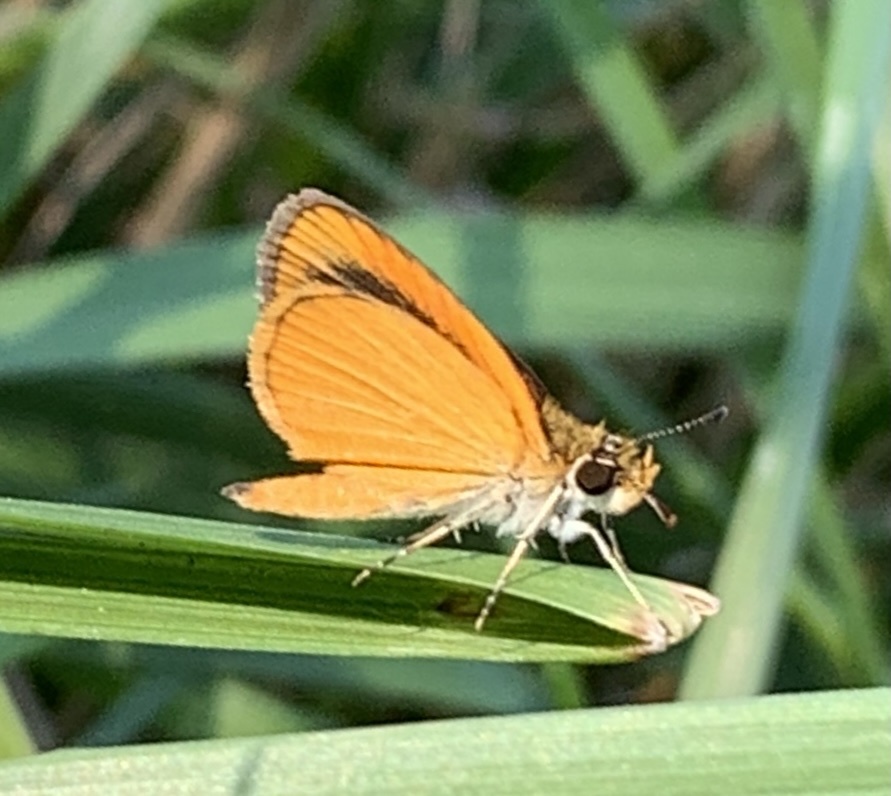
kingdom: Animalia
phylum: Arthropoda
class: Insecta
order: Lepidoptera
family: Hesperiidae
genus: Ancyloxypha
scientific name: Ancyloxypha numitor
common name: Least skipper
